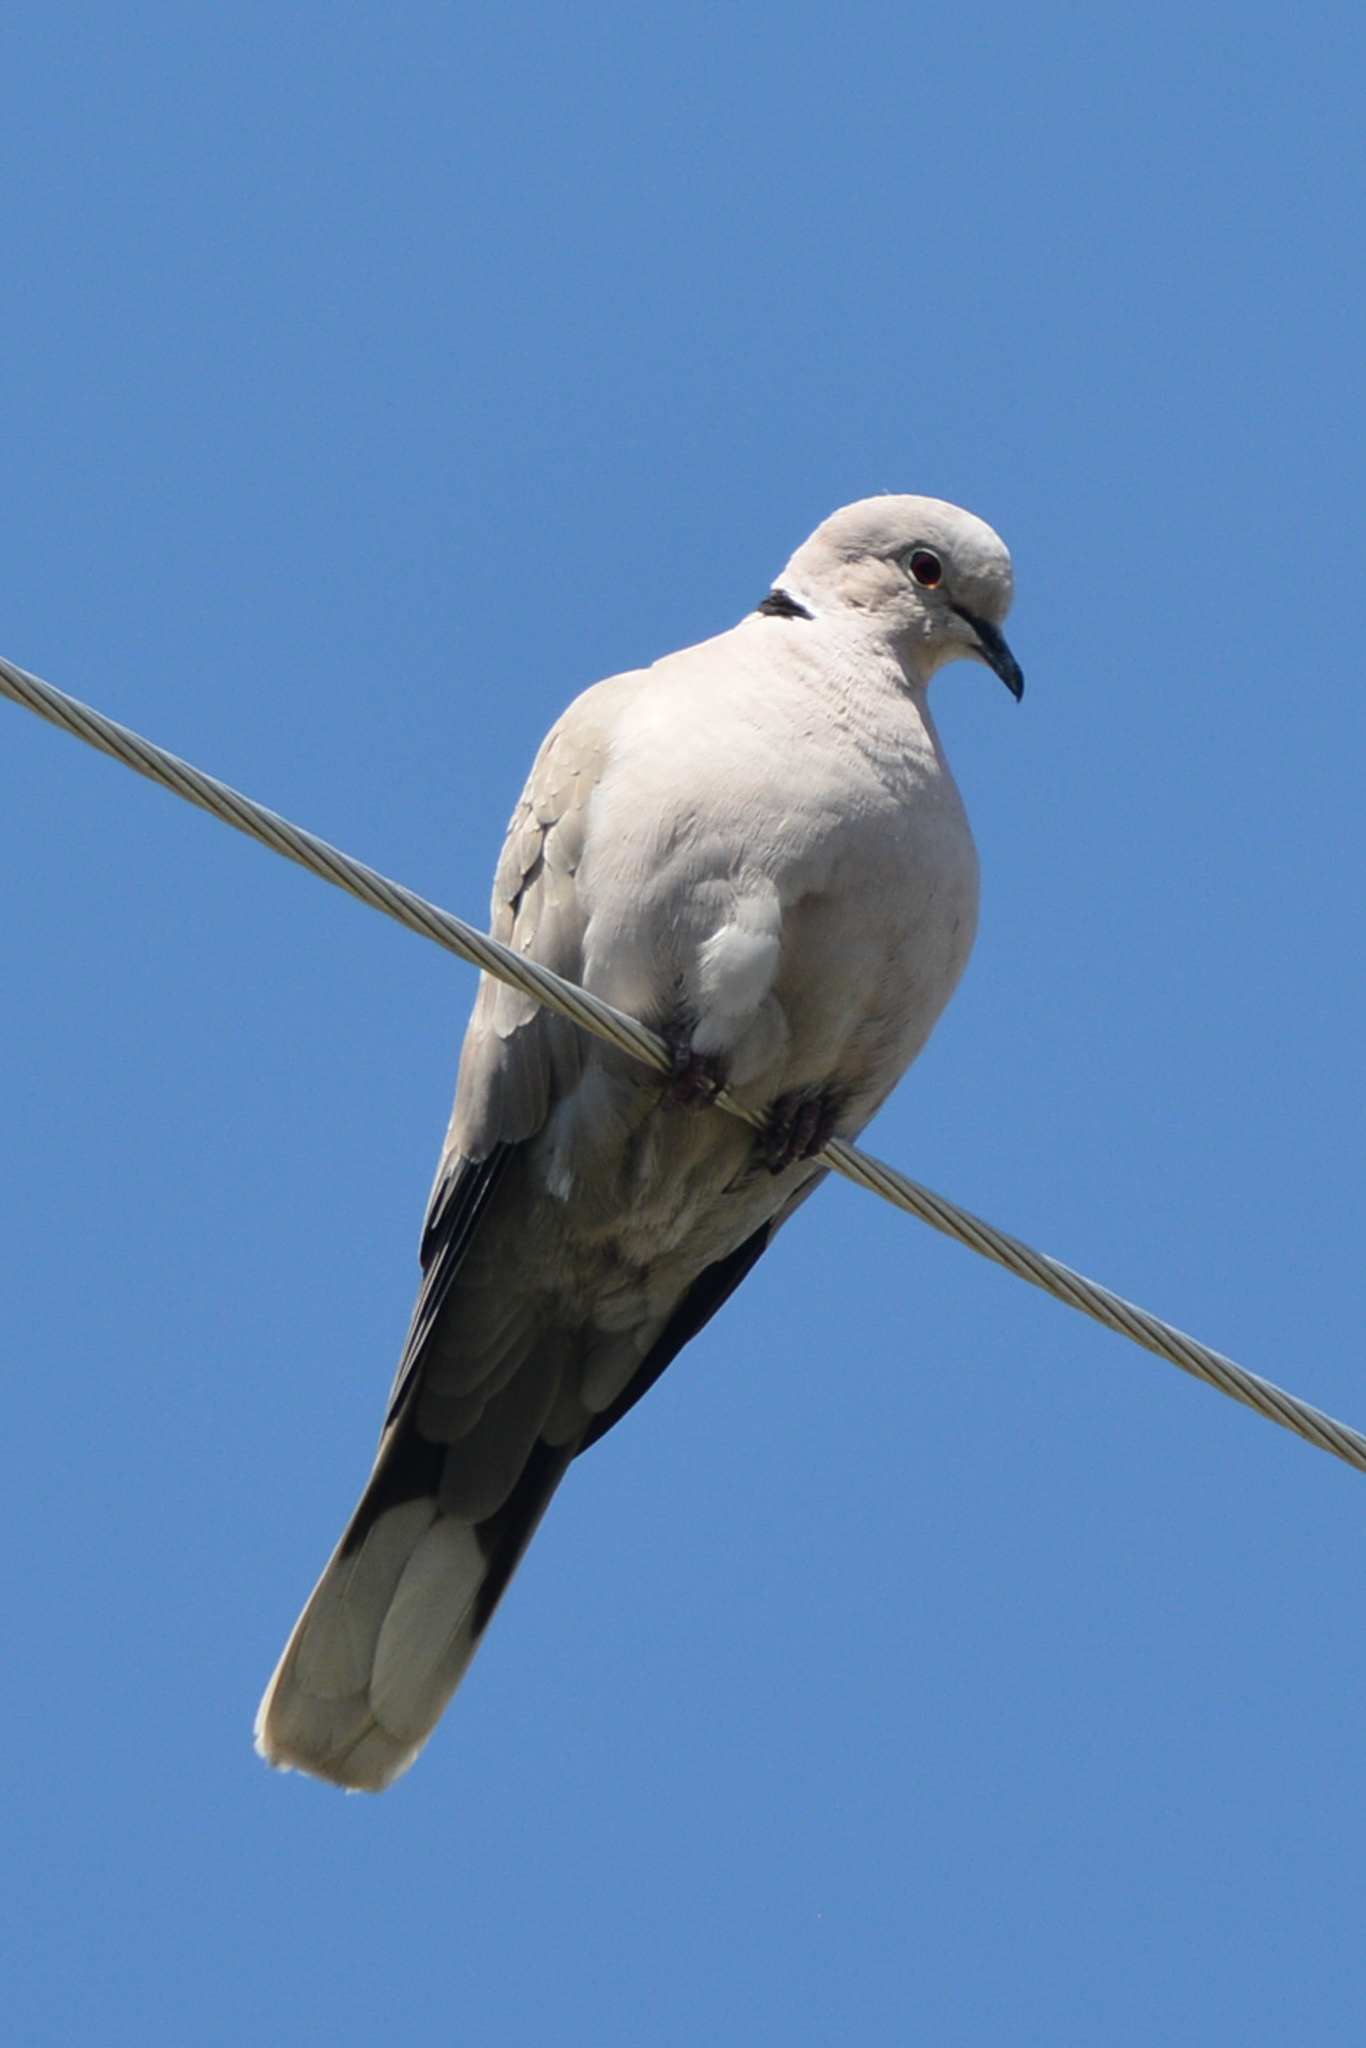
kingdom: Animalia
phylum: Chordata
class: Aves
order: Columbiformes
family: Columbidae
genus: Streptopelia
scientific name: Streptopelia decaocto
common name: Eurasian collared dove
